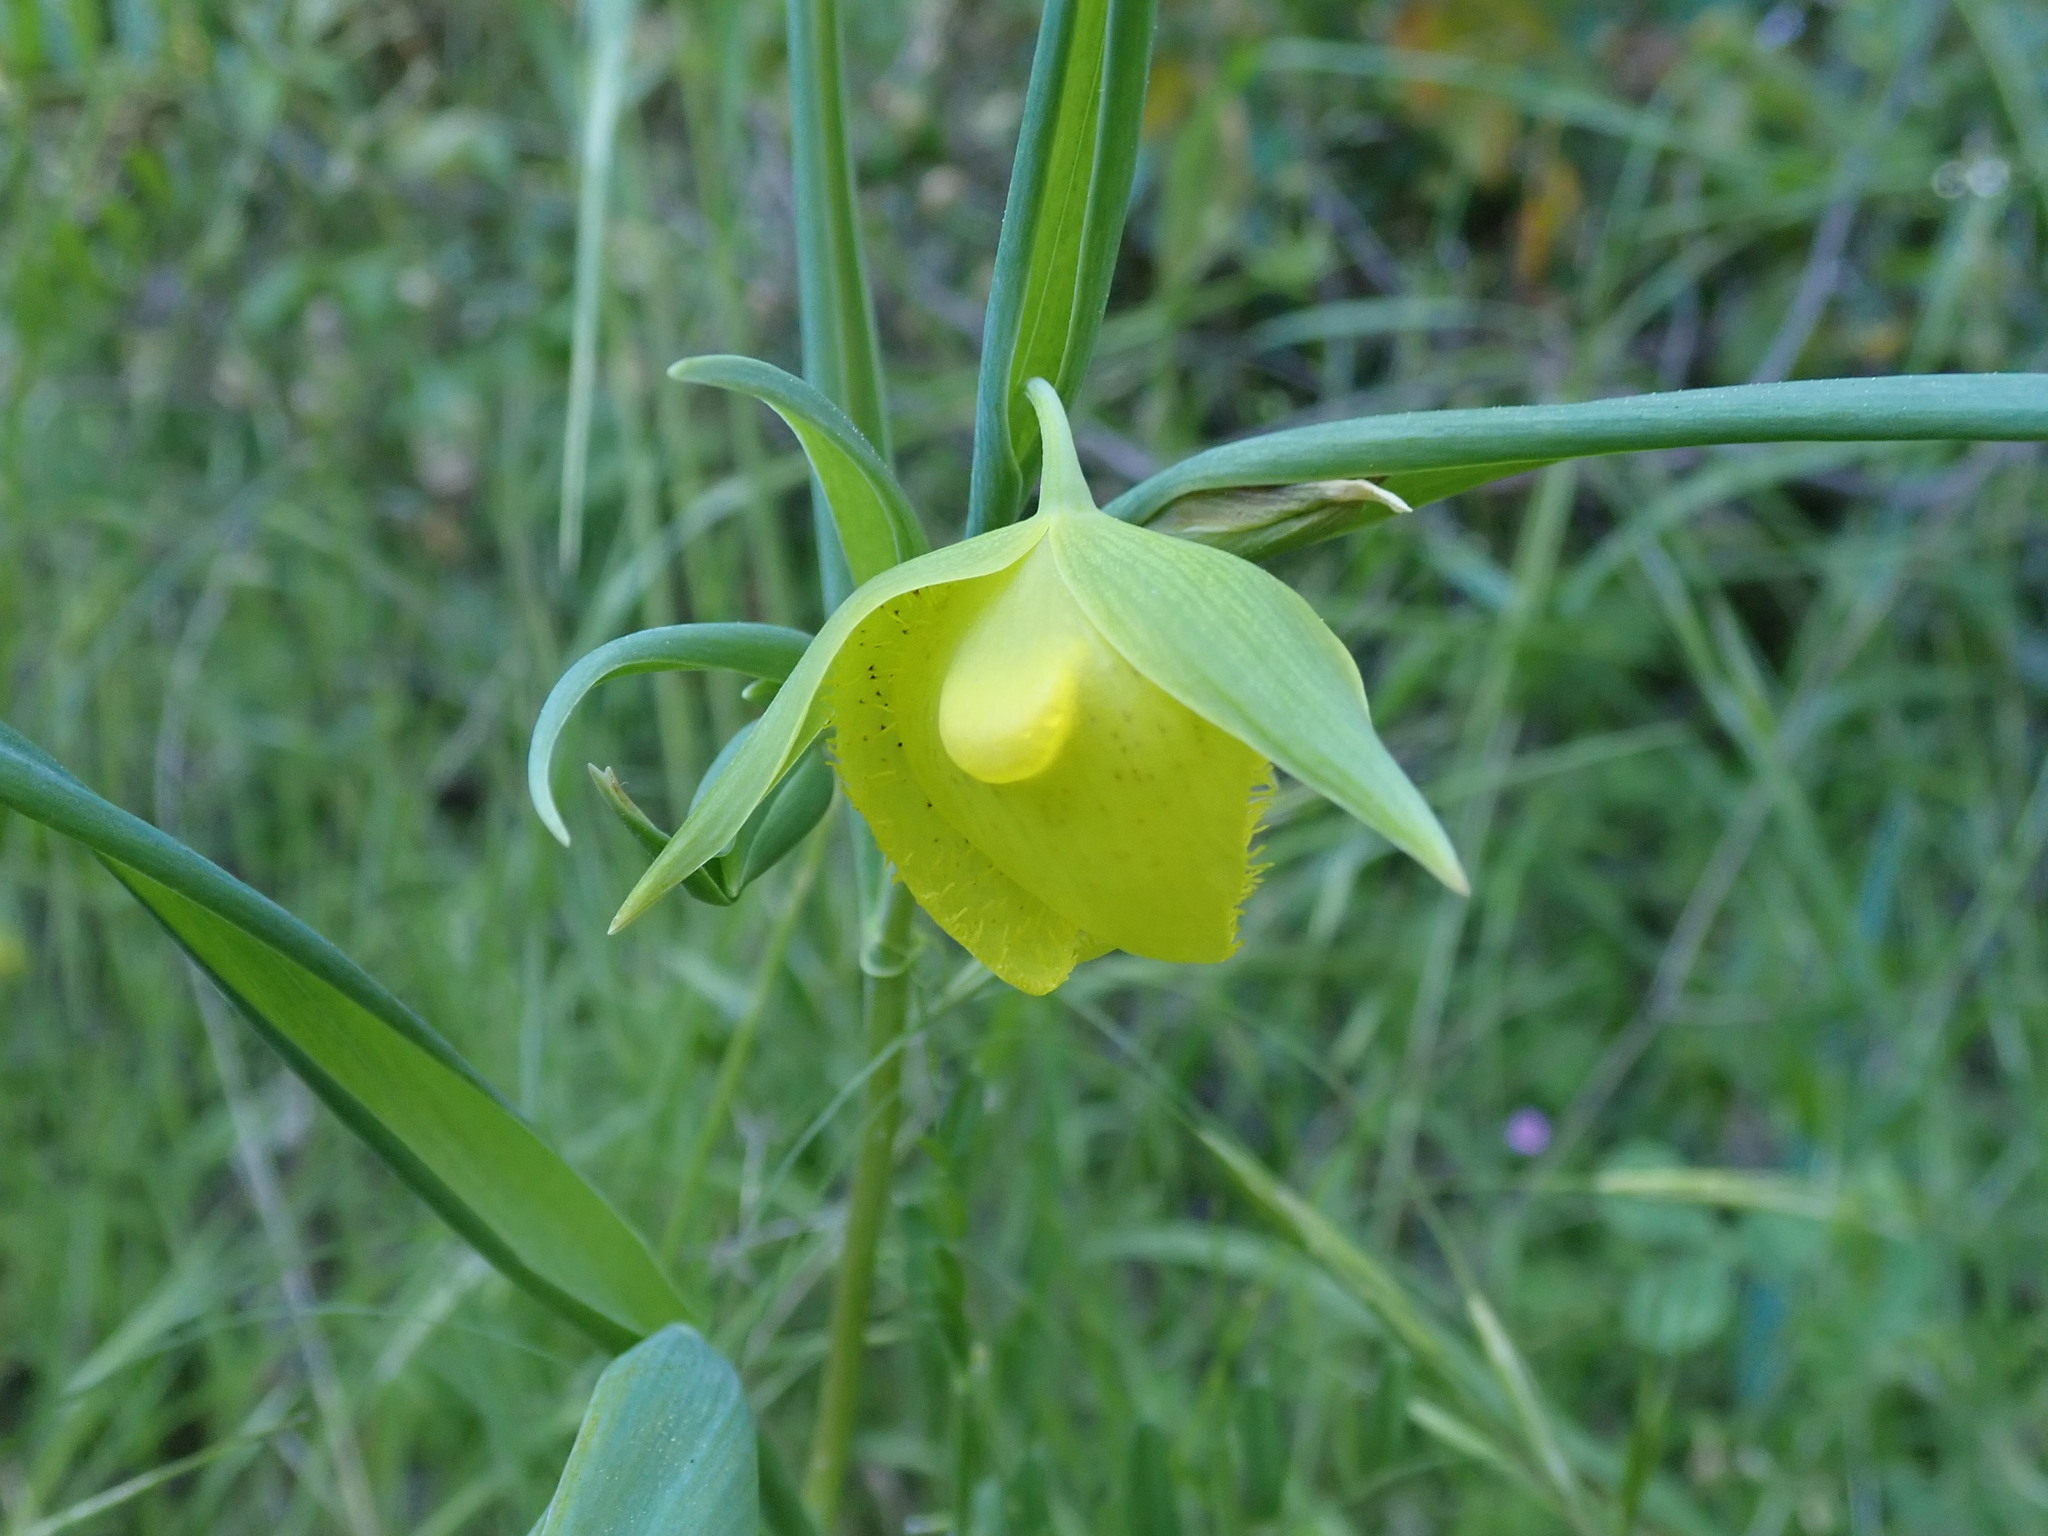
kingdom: Plantae
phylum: Tracheophyta
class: Liliopsida
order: Liliales
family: Liliaceae
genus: Calochortus
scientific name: Calochortus pulchellus
